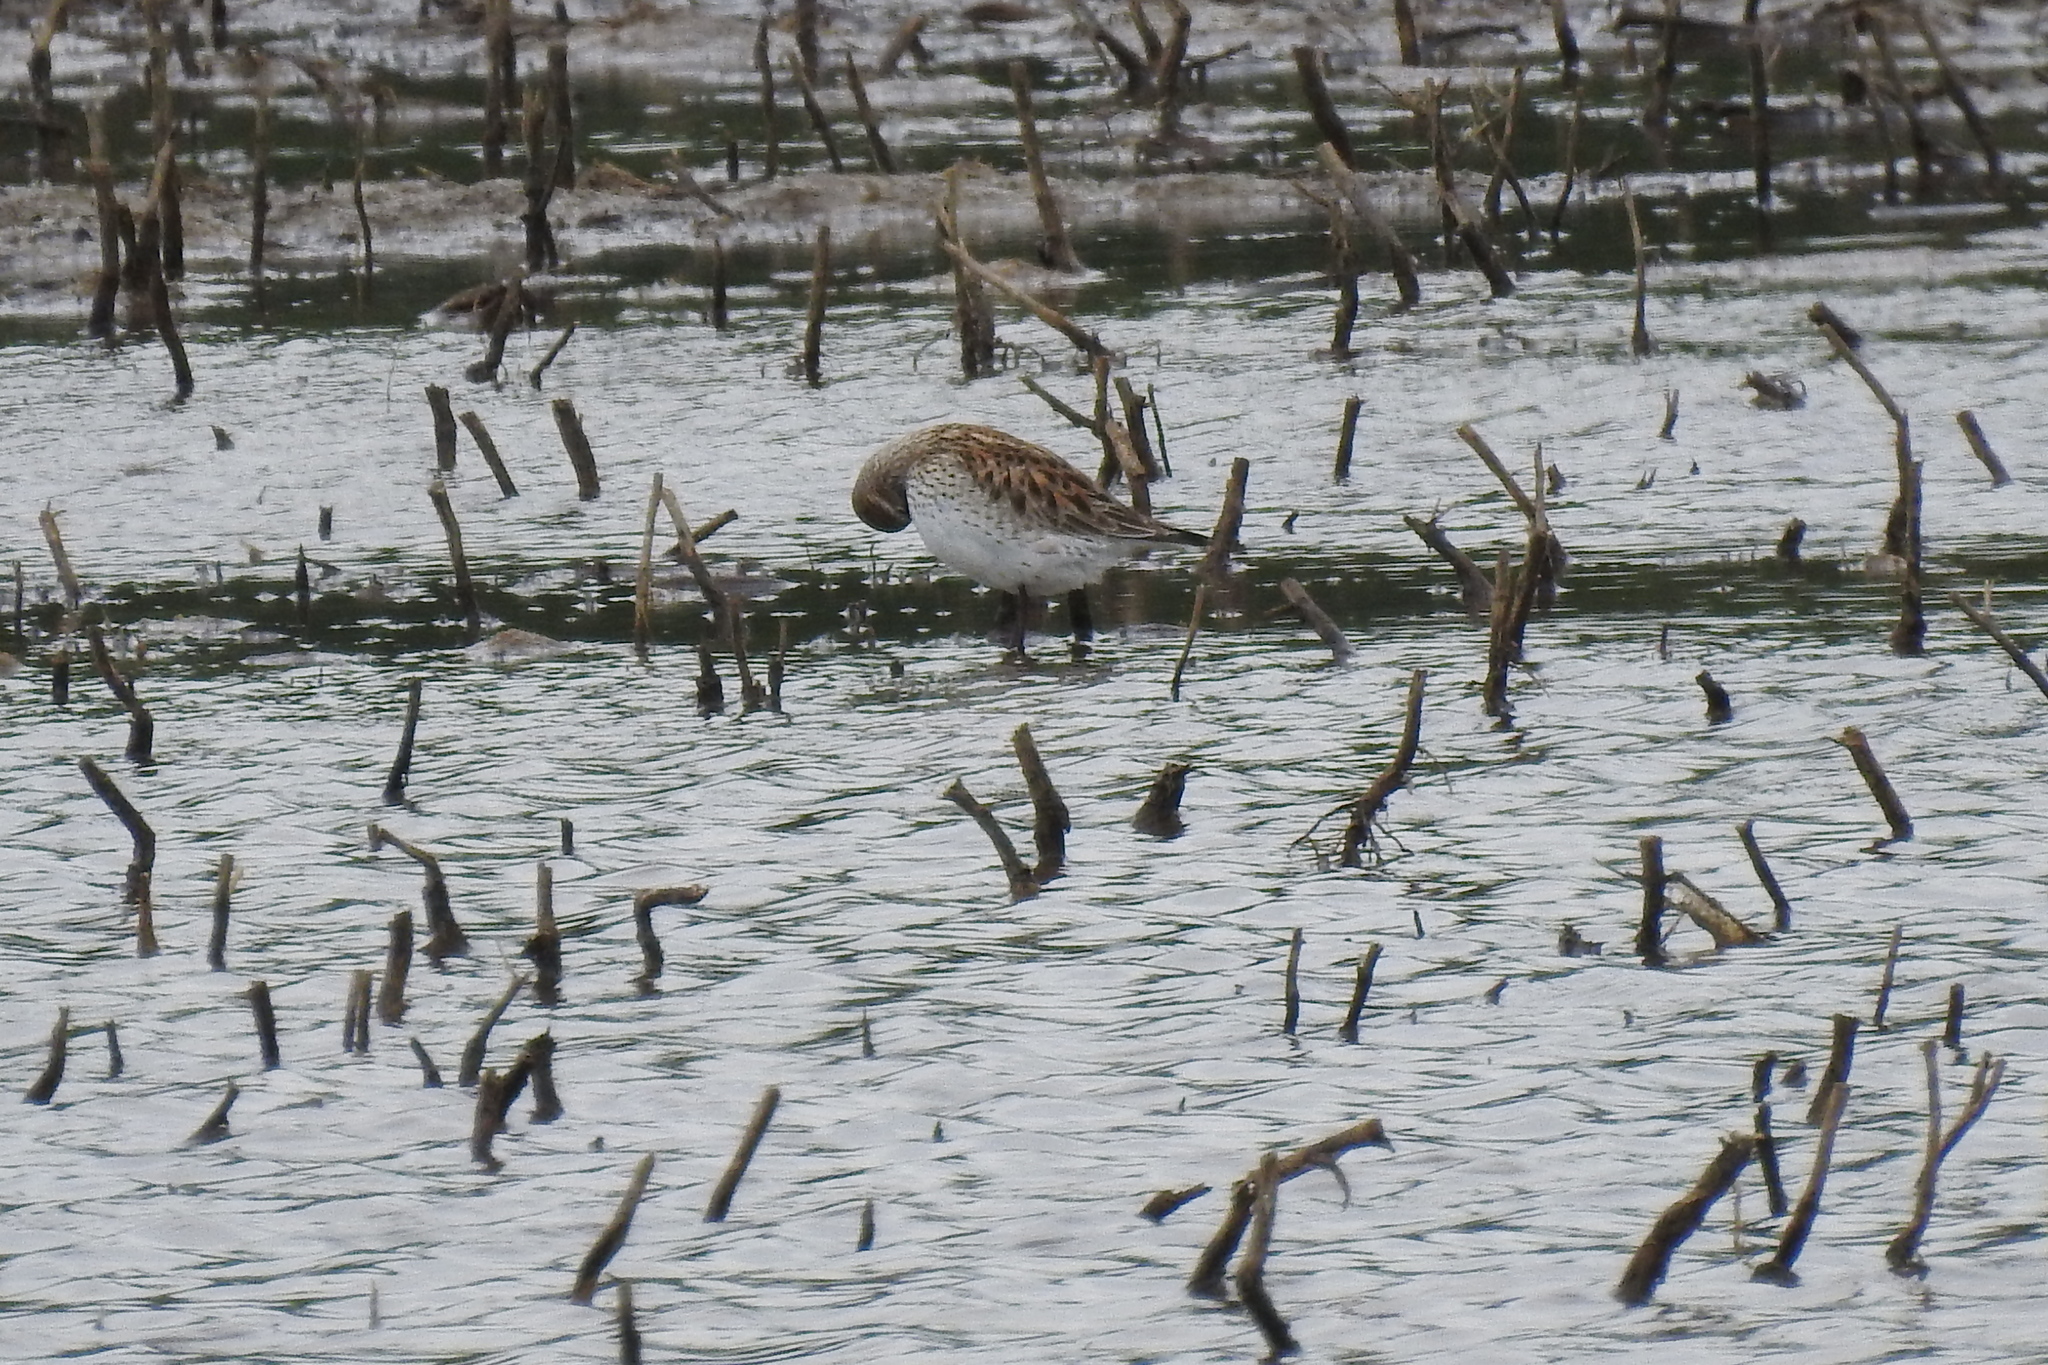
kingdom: Animalia
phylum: Chordata
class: Aves
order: Charadriiformes
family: Scolopacidae
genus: Calidris
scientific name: Calidris fuscicollis
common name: White-rumped sandpiper
